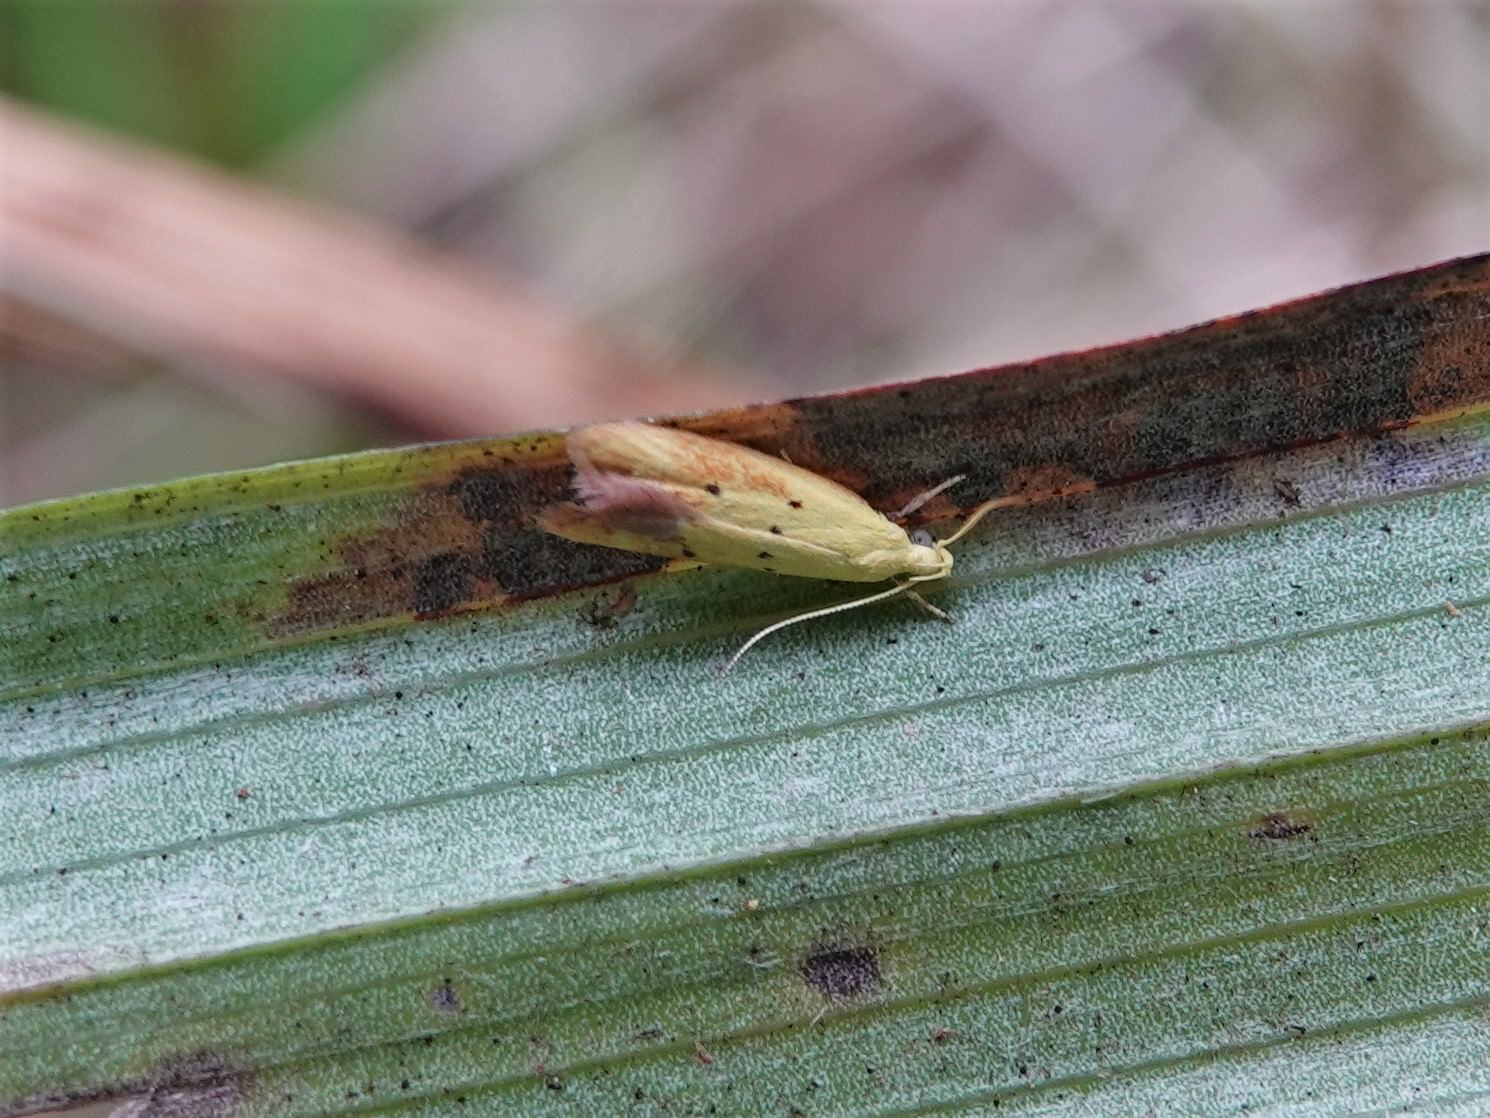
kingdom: Animalia
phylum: Arthropoda
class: Insecta
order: Lepidoptera
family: Oecophoridae
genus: Gymnobathra
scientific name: Gymnobathra flavidella
